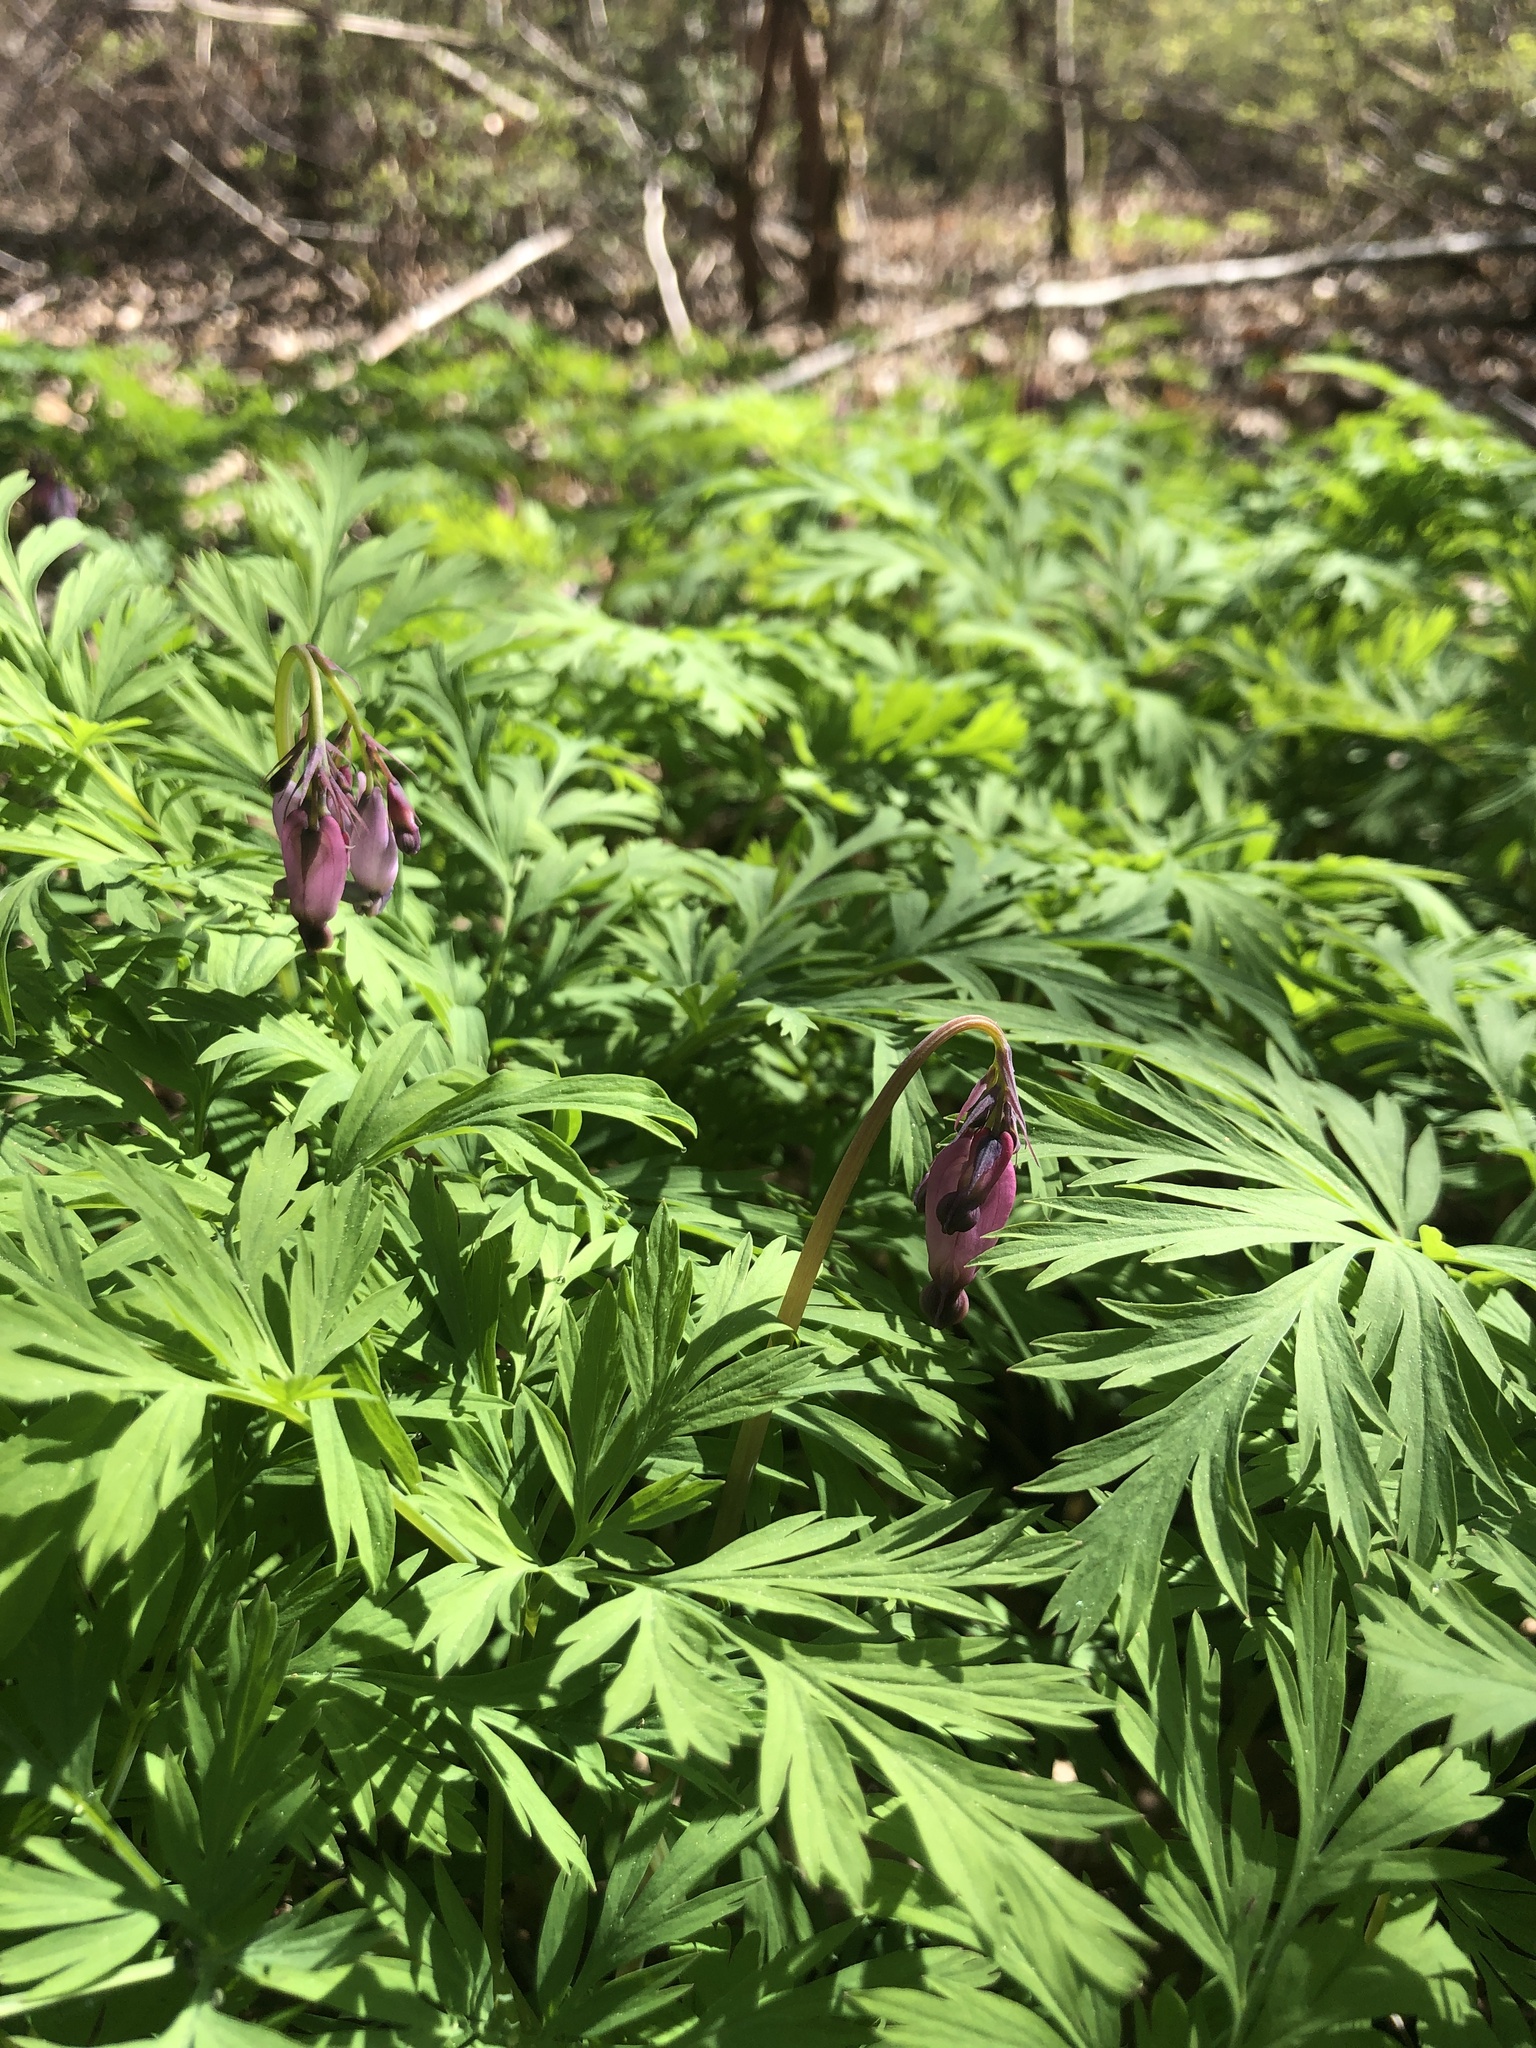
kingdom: Plantae
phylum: Tracheophyta
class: Magnoliopsida
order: Ranunculales
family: Papaveraceae
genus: Dicentra
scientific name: Dicentra formosa
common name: Bleeding-heart
